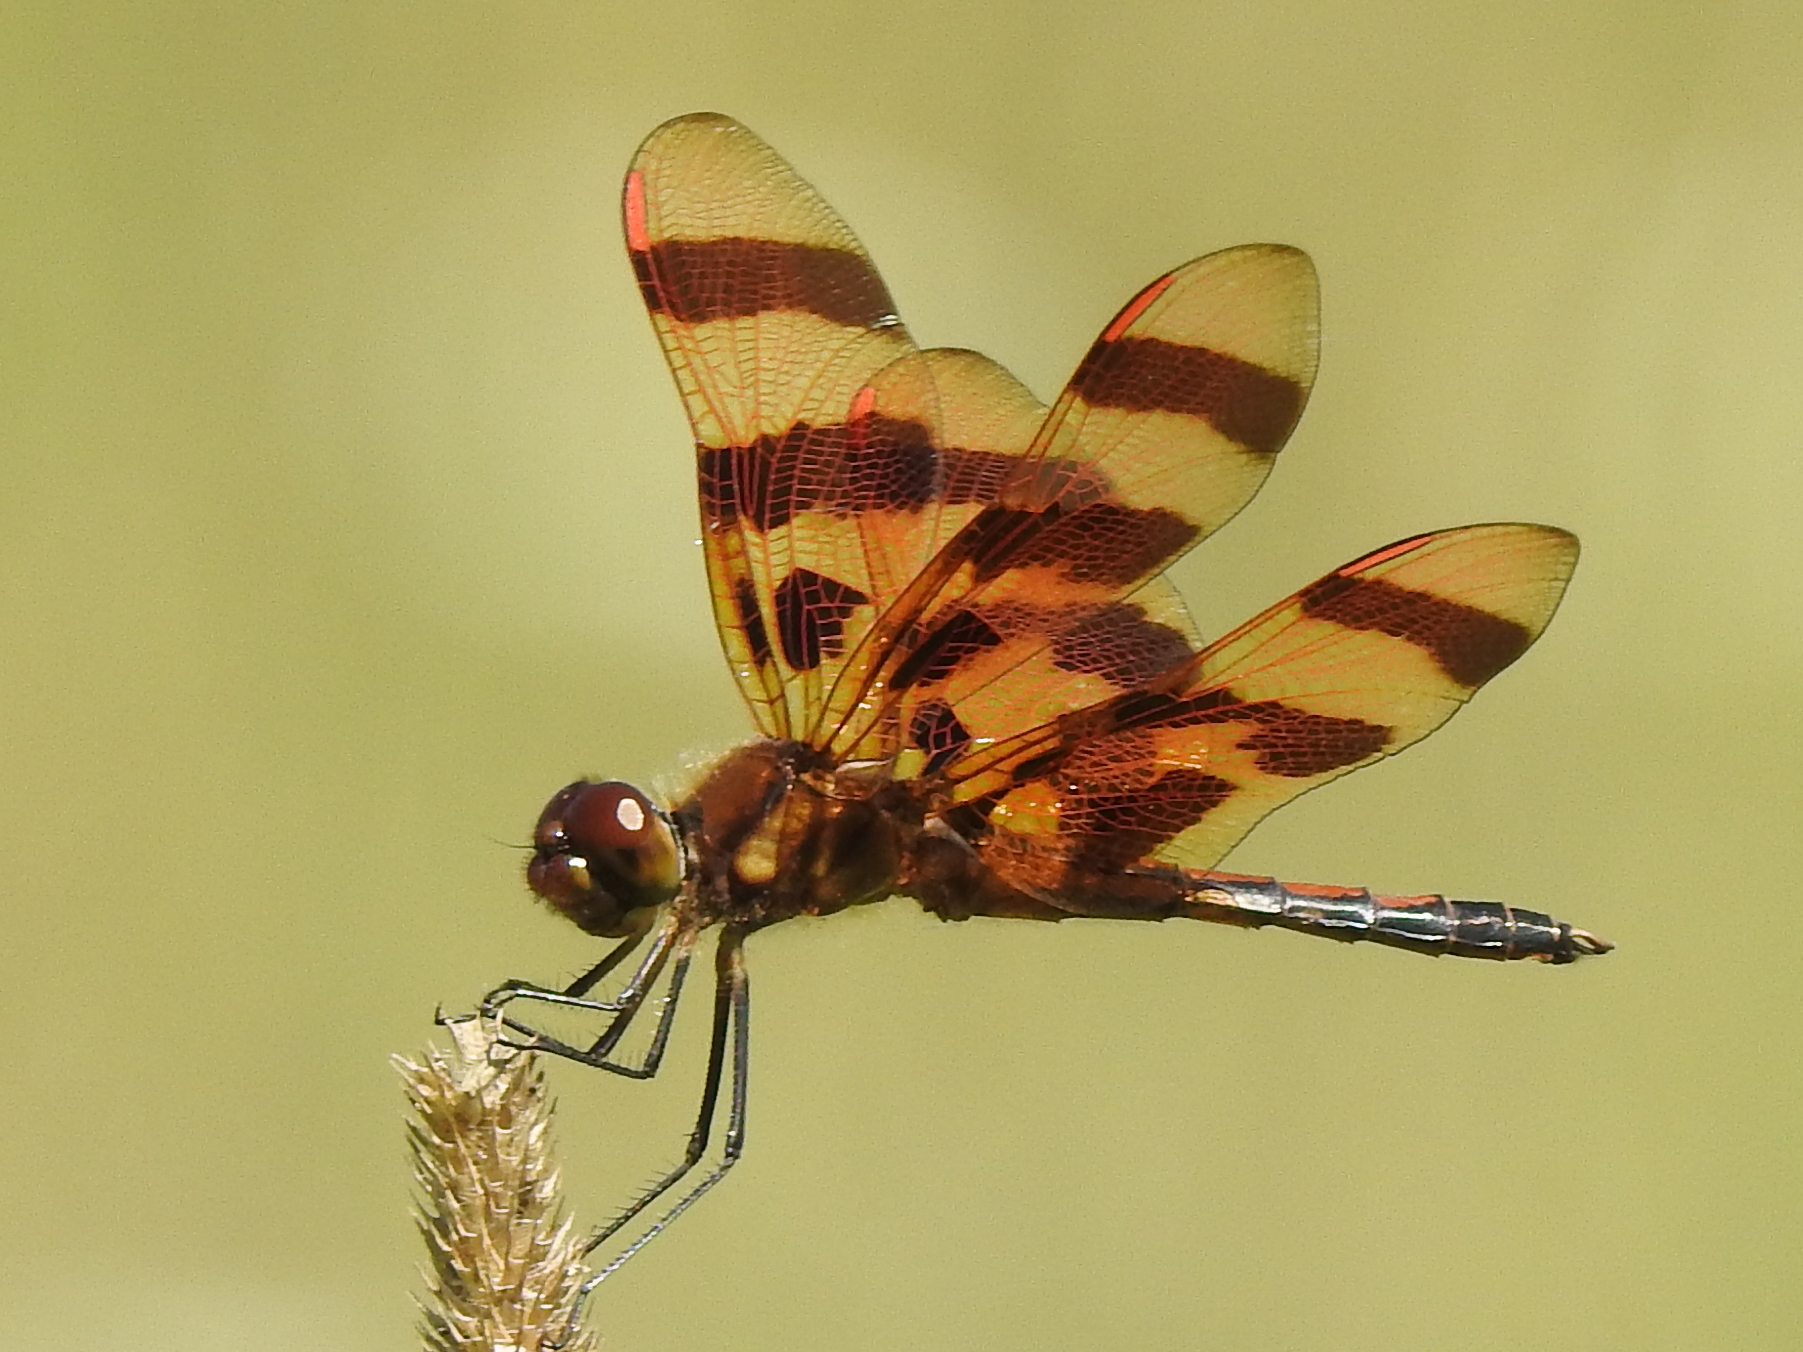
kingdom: Animalia
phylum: Arthropoda
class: Insecta
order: Odonata
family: Libellulidae
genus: Celithemis
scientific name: Celithemis eponina
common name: Halloween pennant
